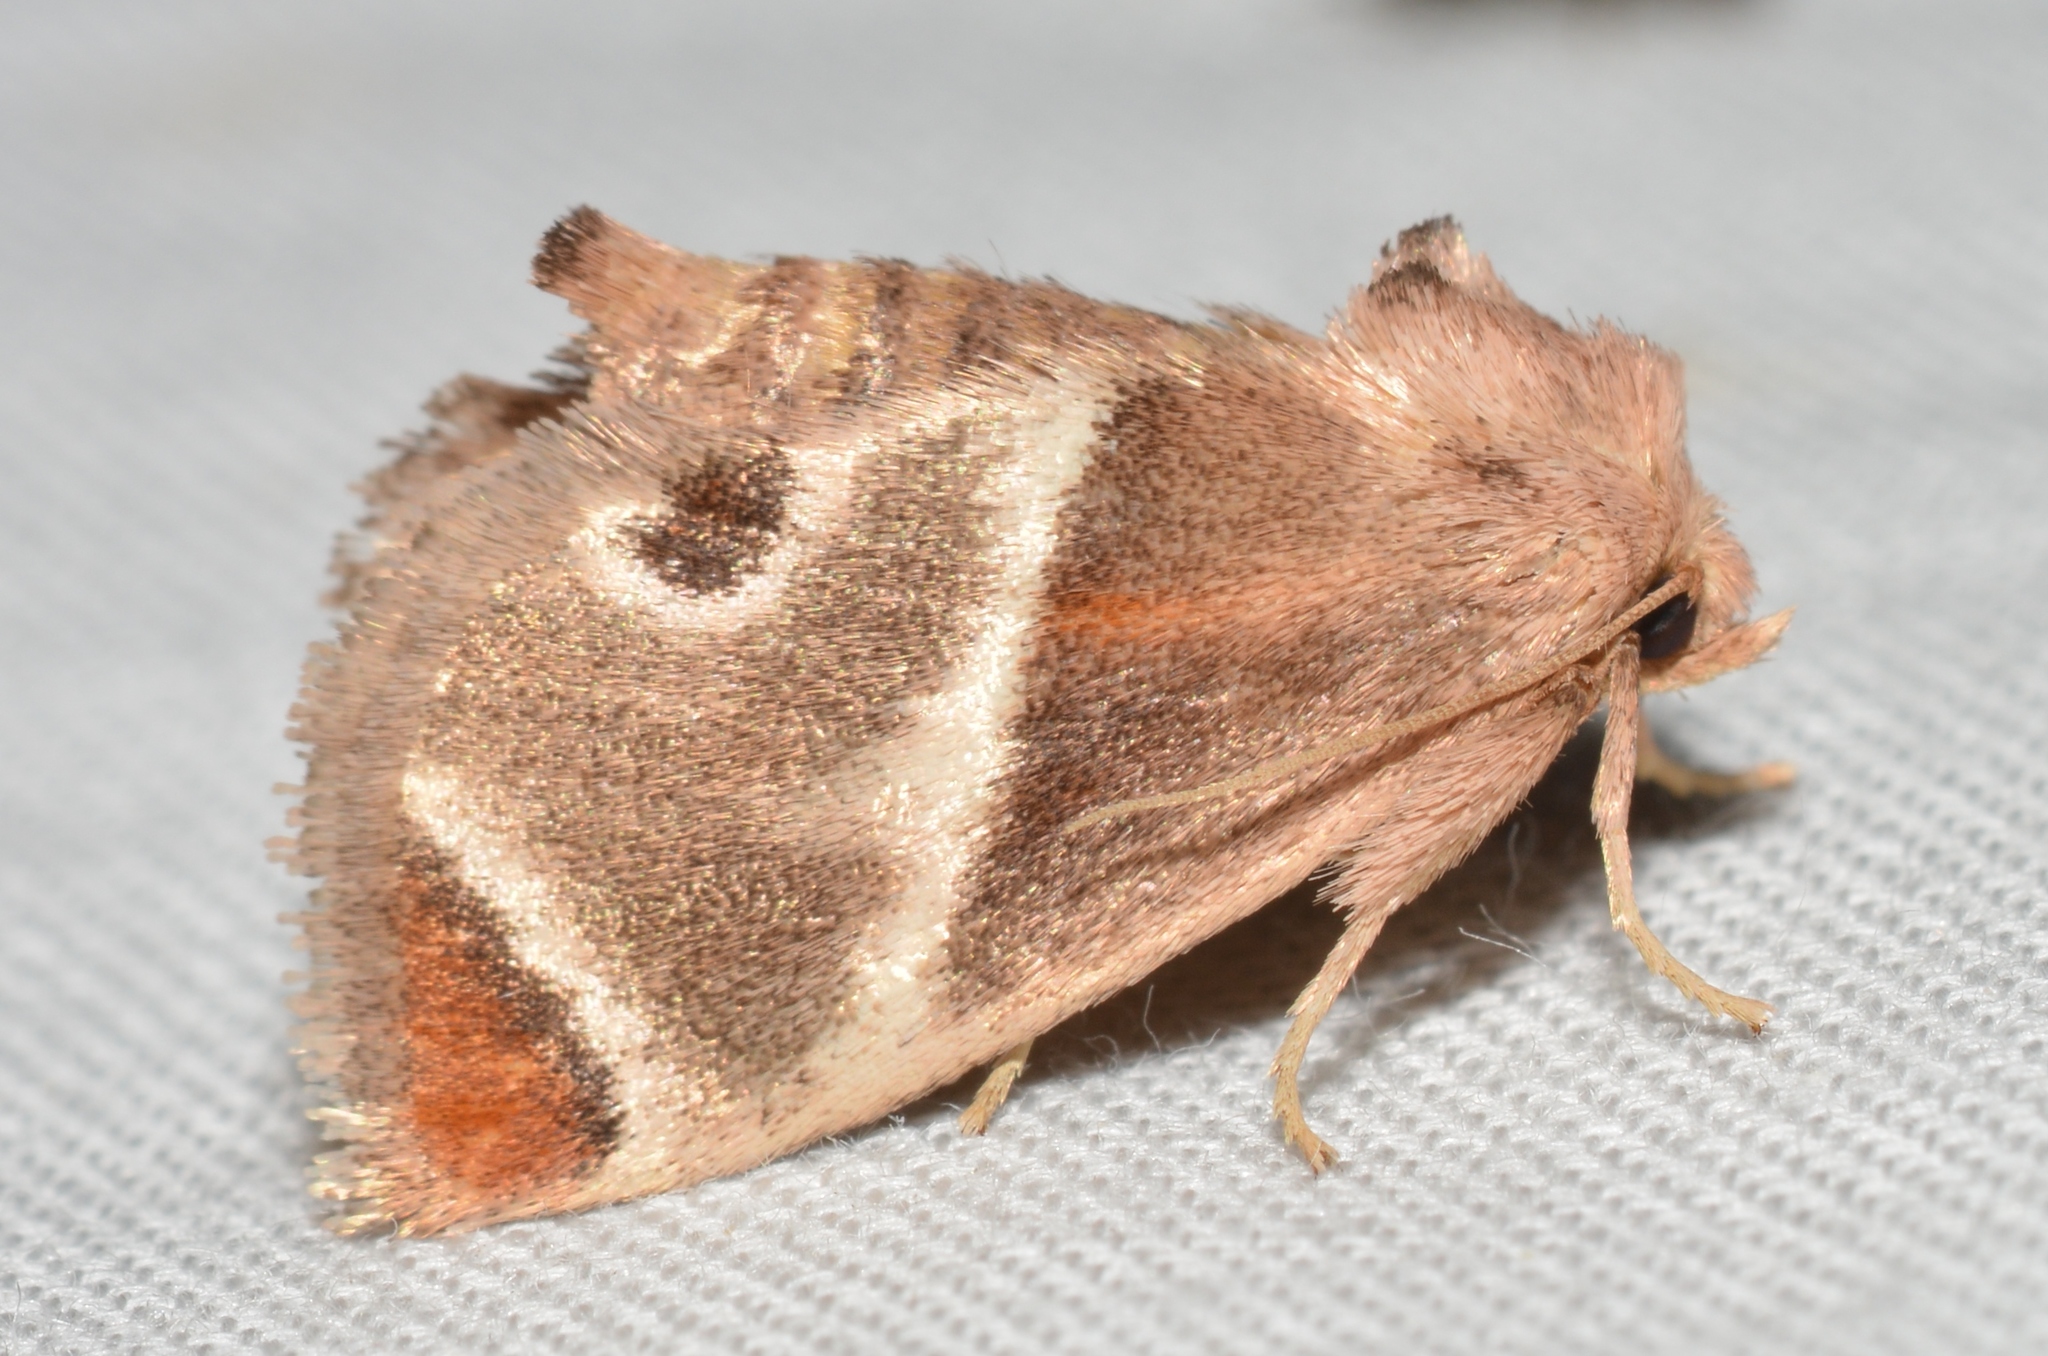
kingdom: Animalia
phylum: Arthropoda
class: Insecta
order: Lepidoptera
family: Limacodidae
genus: Apoda
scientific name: Apoda biguttata
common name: Shagreened slug moth
